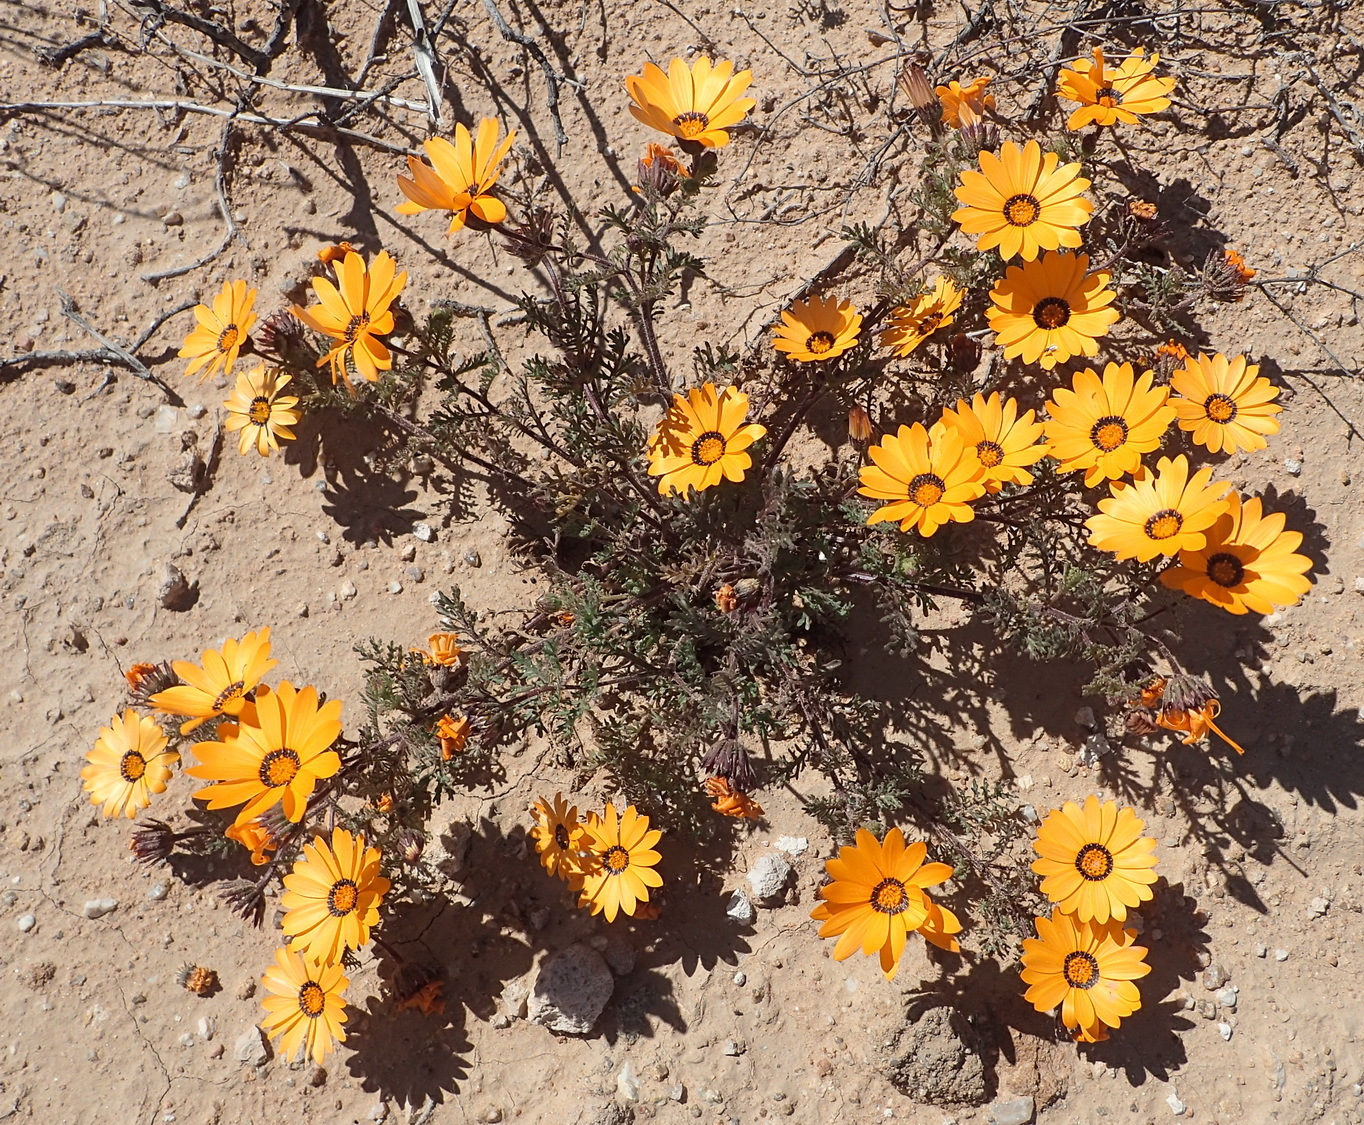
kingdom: Plantae
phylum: Tracheophyta
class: Magnoliopsida
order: Asterales
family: Asteraceae
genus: Dimorphotheca
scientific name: Dimorphotheca pinnata
